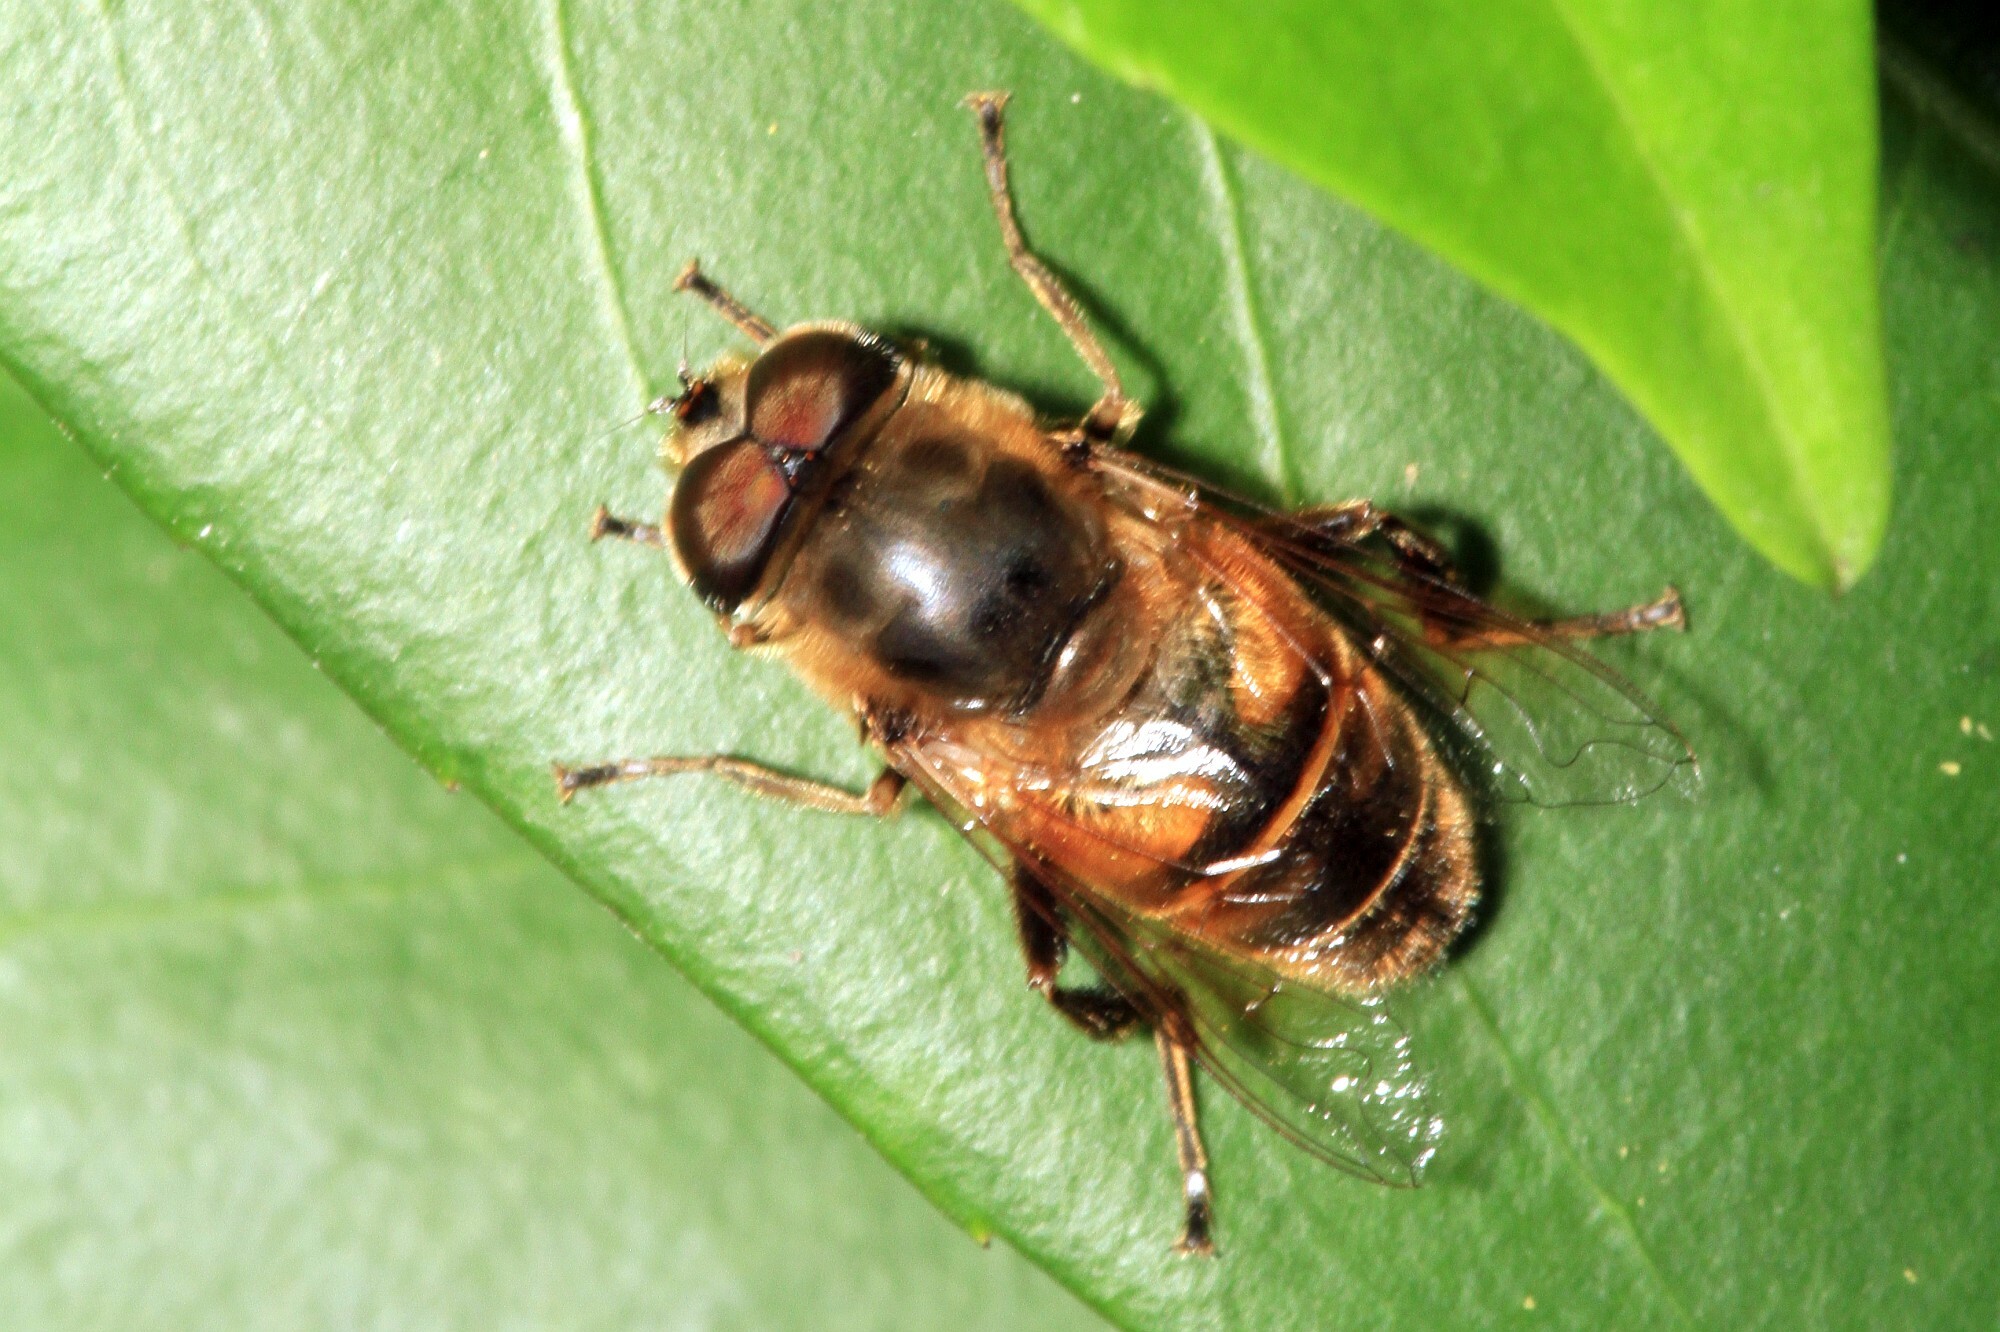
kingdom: Animalia
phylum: Arthropoda
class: Insecta
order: Diptera
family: Syrphidae
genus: Eristalis
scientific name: Eristalis tenax
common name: Drone fly
